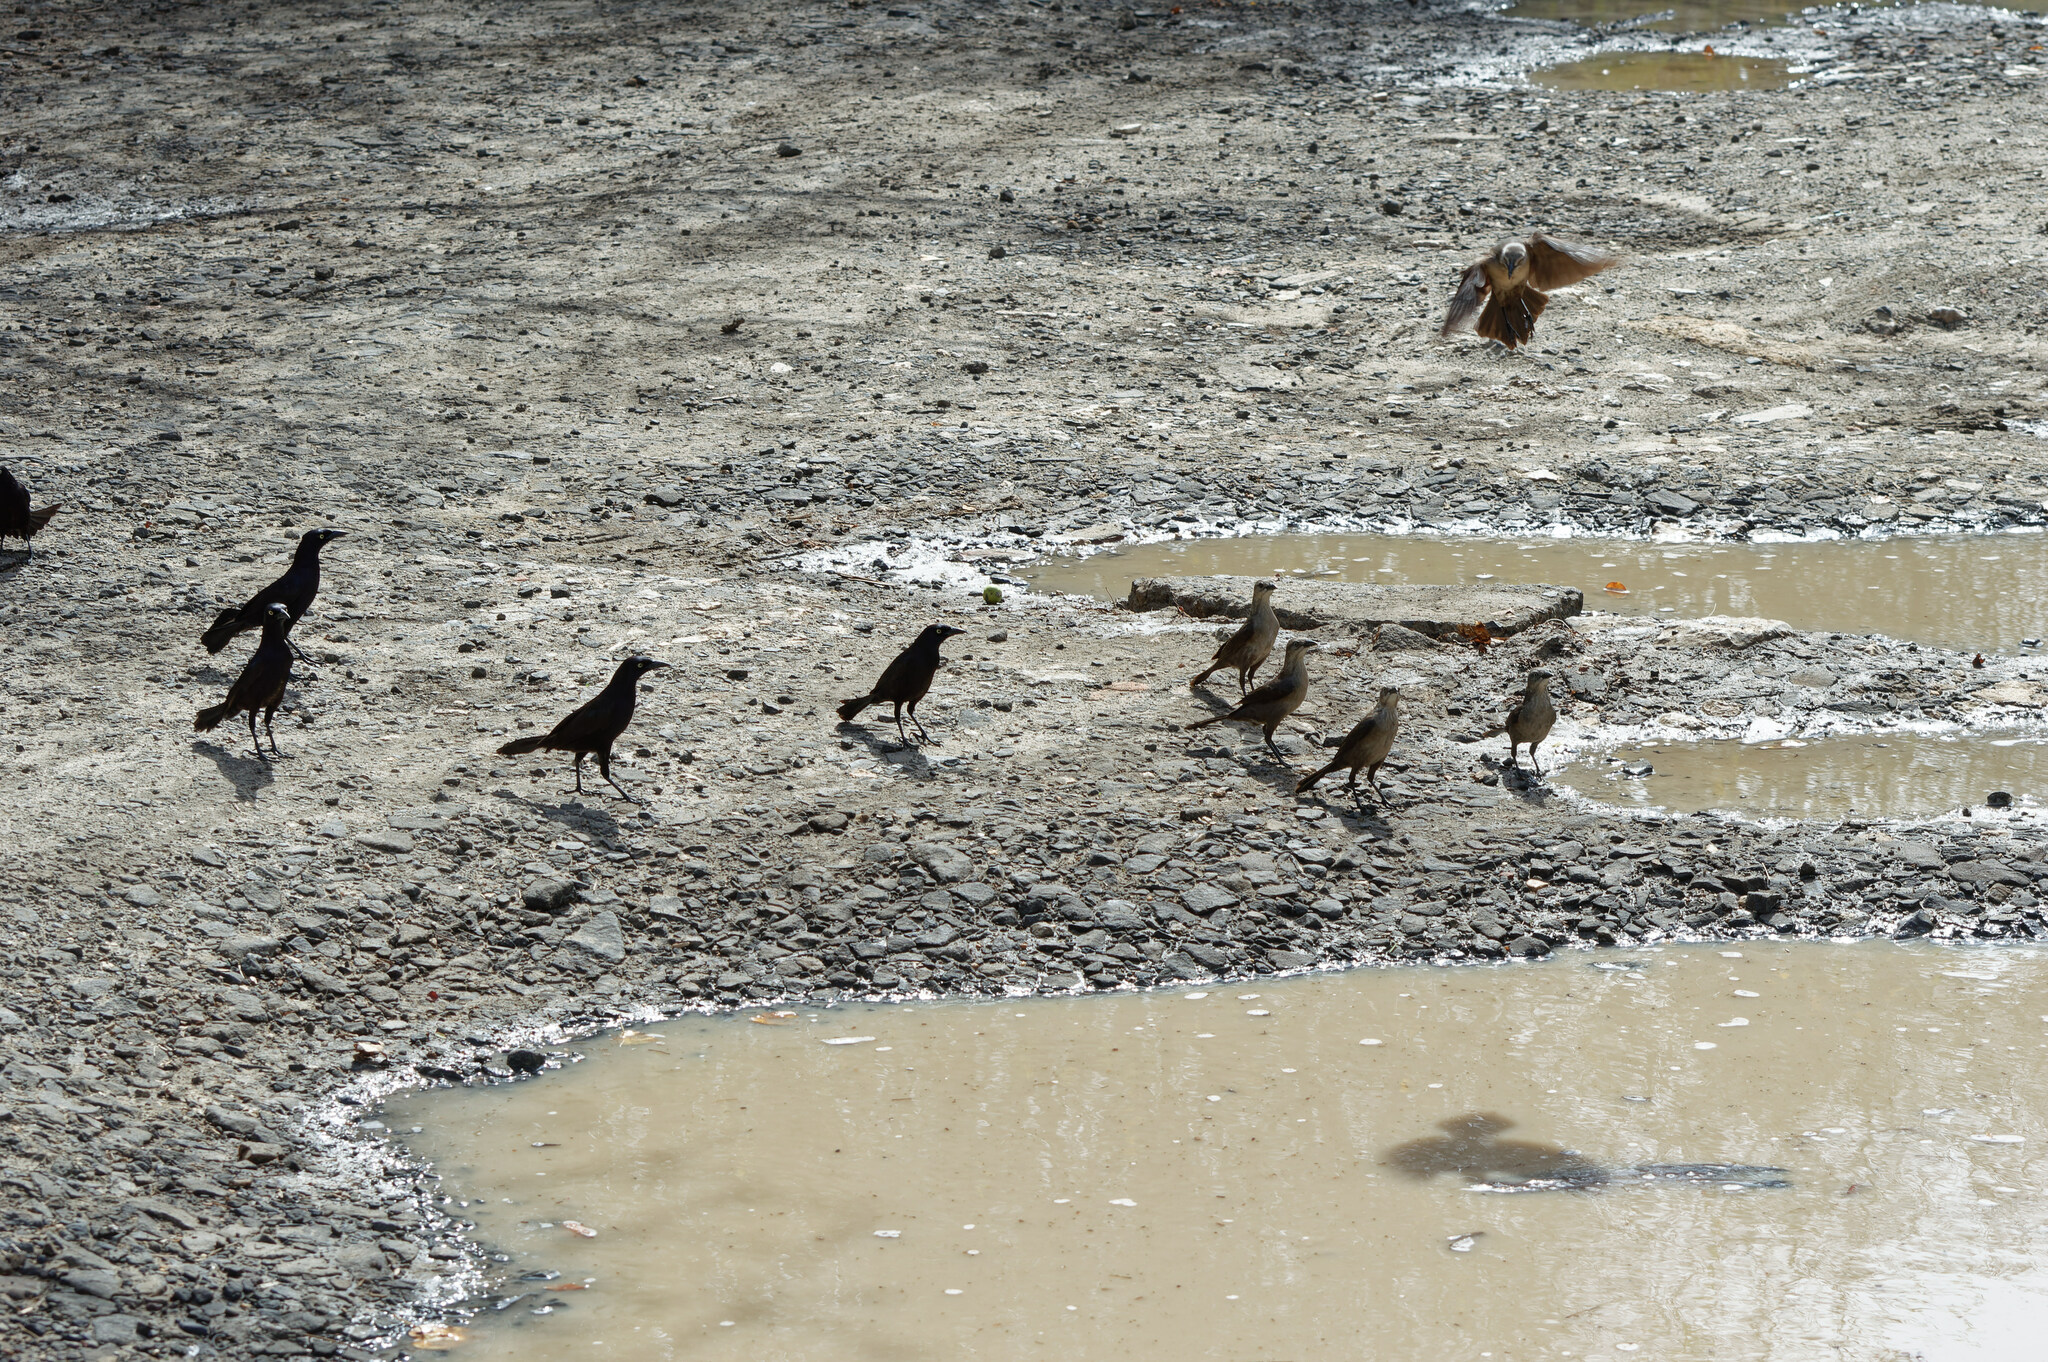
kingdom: Animalia
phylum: Chordata
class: Aves
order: Passeriformes
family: Icteridae
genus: Quiscalus
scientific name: Quiscalus lugubris
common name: Carib grackle
